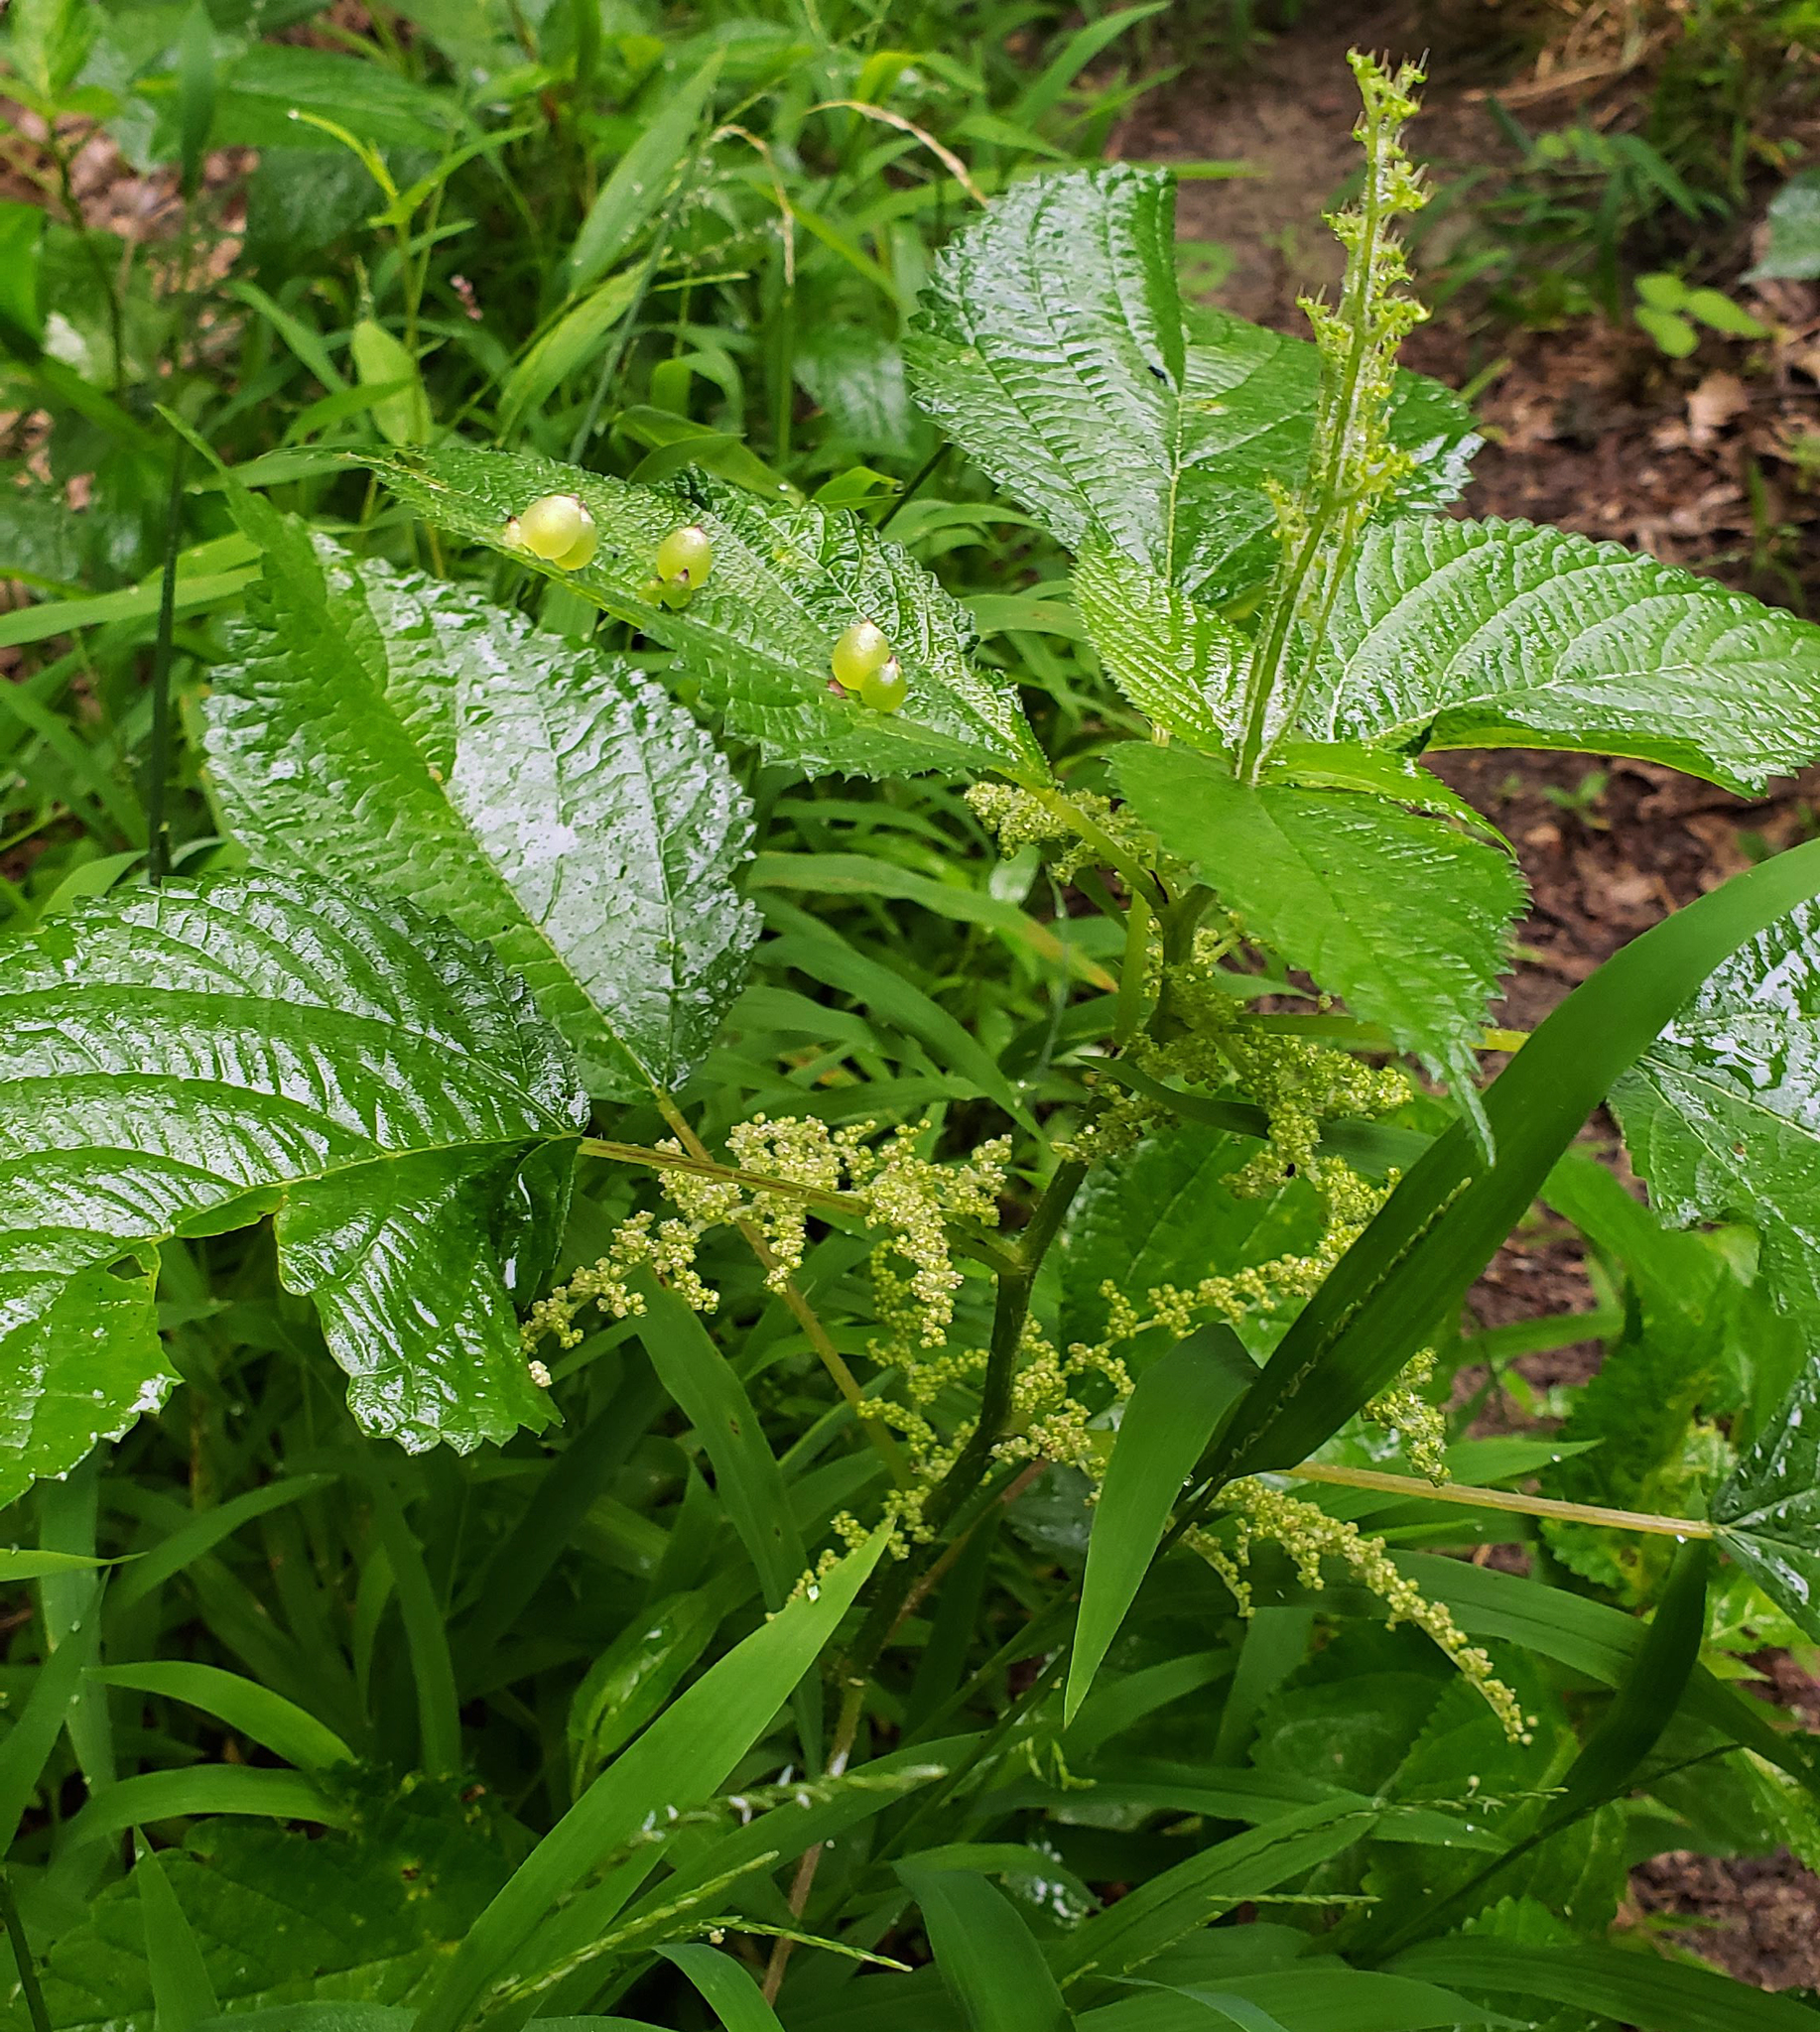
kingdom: Plantae
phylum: Tracheophyta
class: Magnoliopsida
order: Rosales
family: Urticaceae
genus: Laportea
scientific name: Laportea canadensis
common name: Canada nettle
